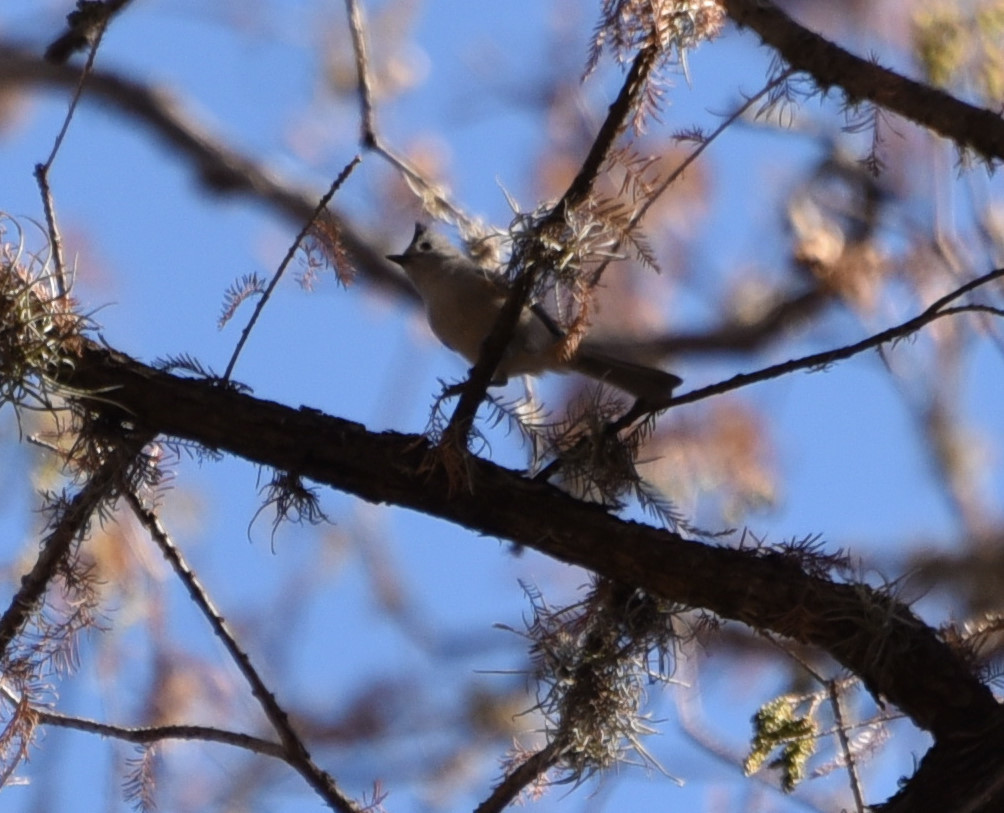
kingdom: Animalia
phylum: Chordata
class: Aves
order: Passeriformes
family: Paridae
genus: Baeolophus
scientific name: Baeolophus atricristatus
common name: Black-crested titmouse
